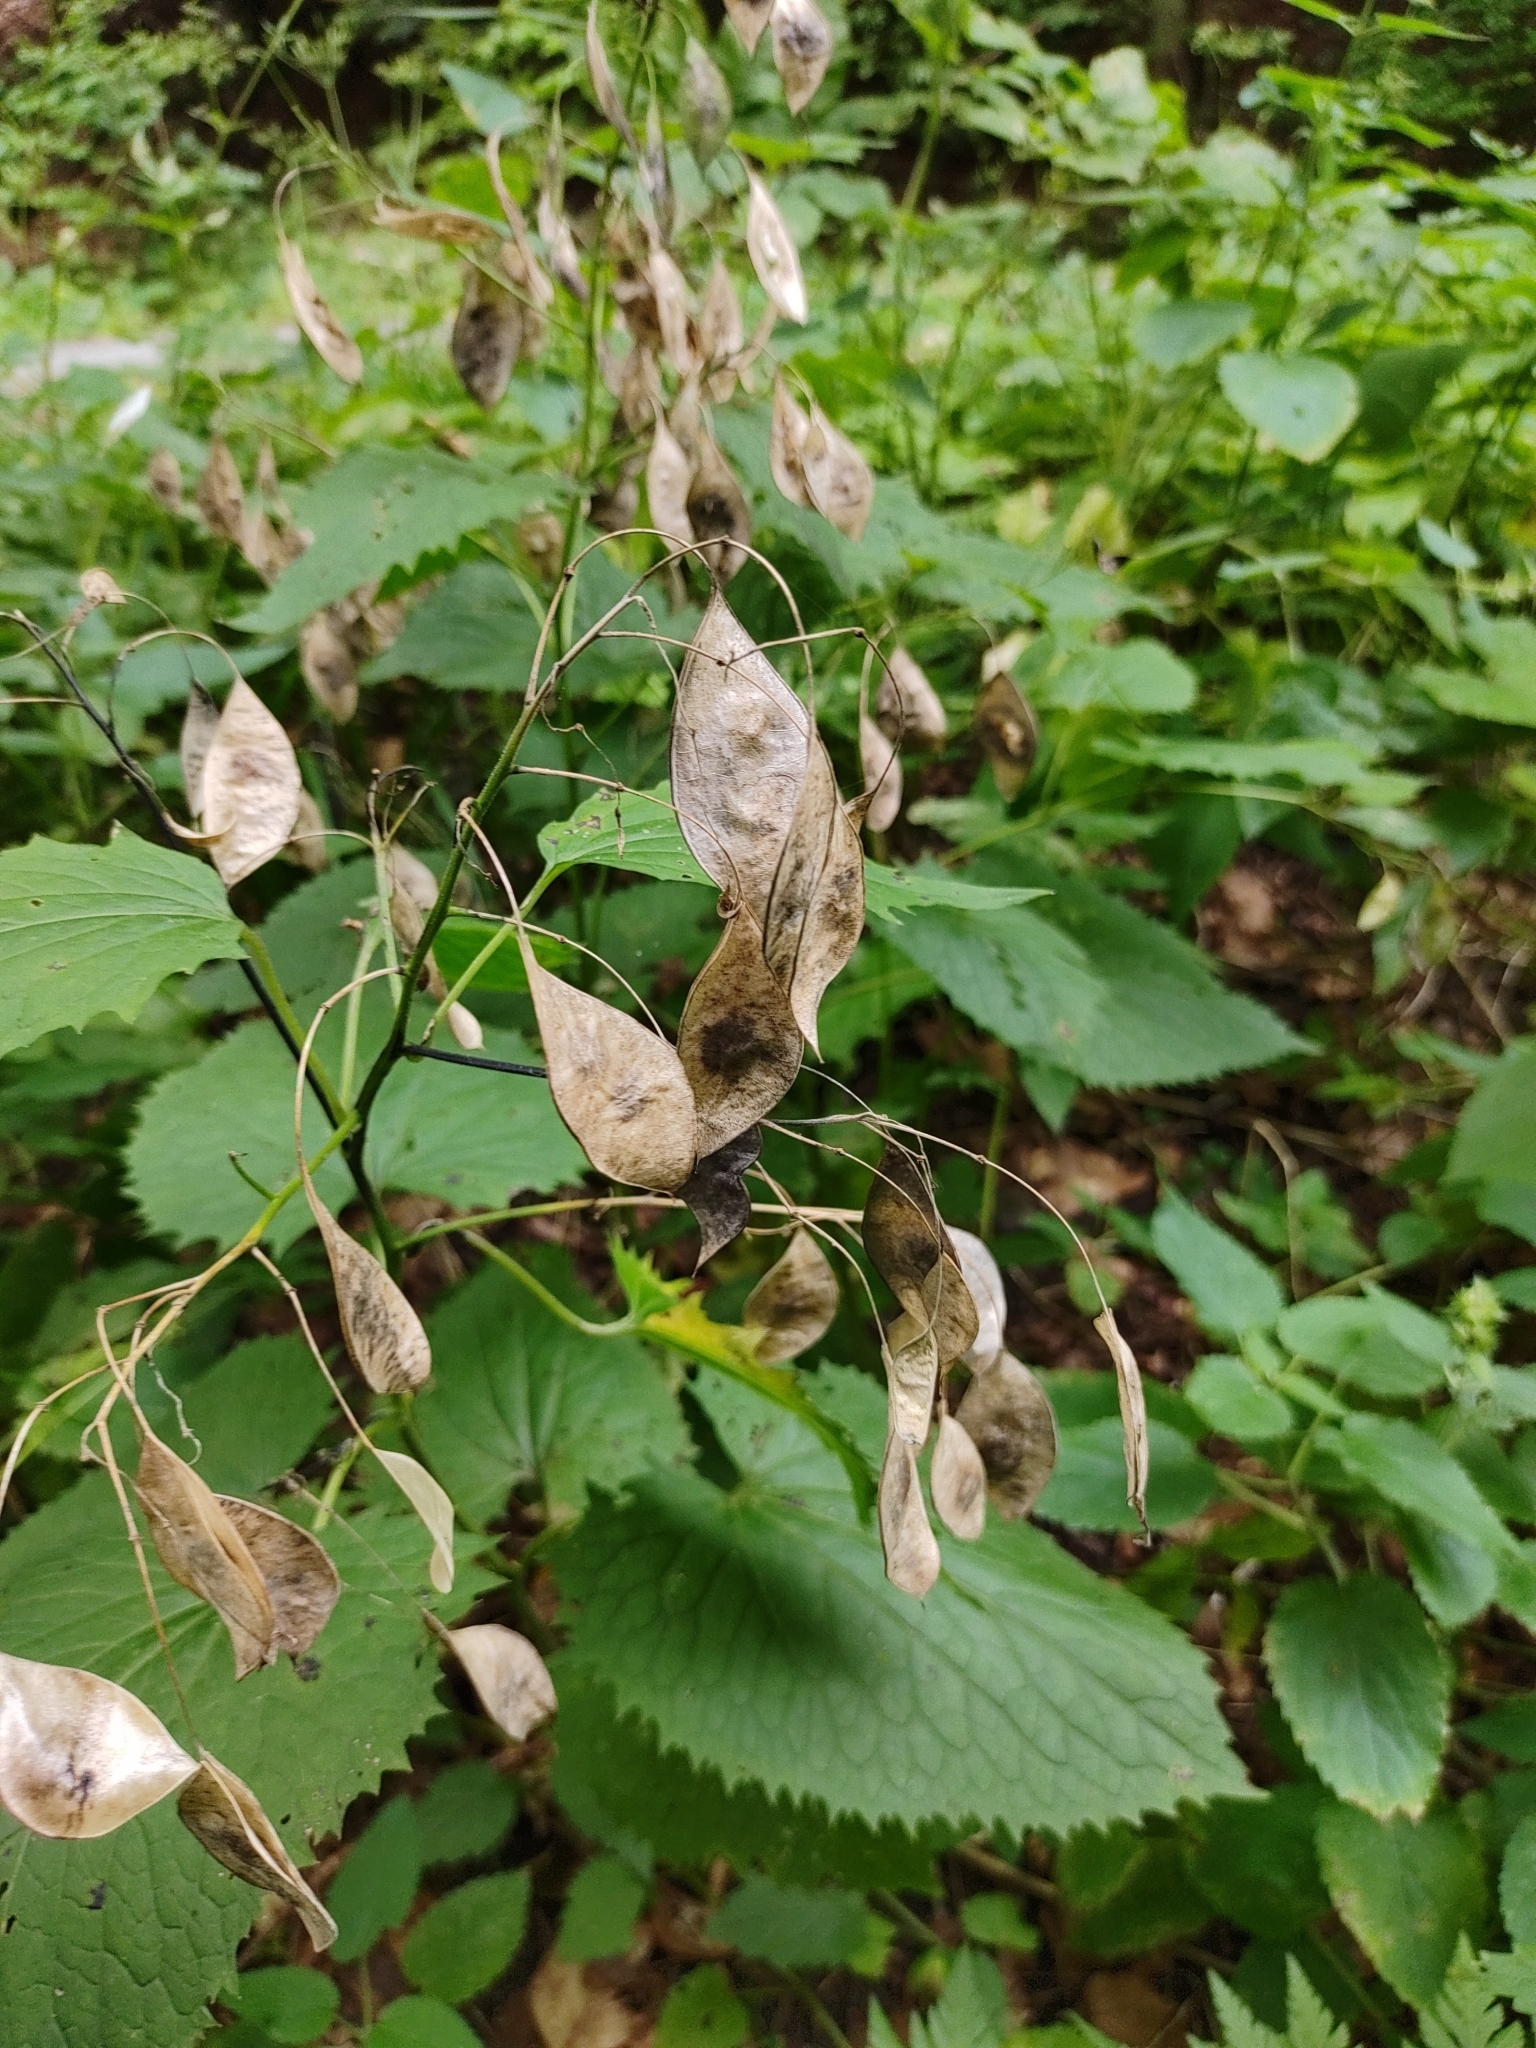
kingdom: Plantae
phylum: Tracheophyta
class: Magnoliopsida
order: Brassicales
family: Brassicaceae
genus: Lunaria
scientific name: Lunaria rediviva
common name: Perennial honesty
